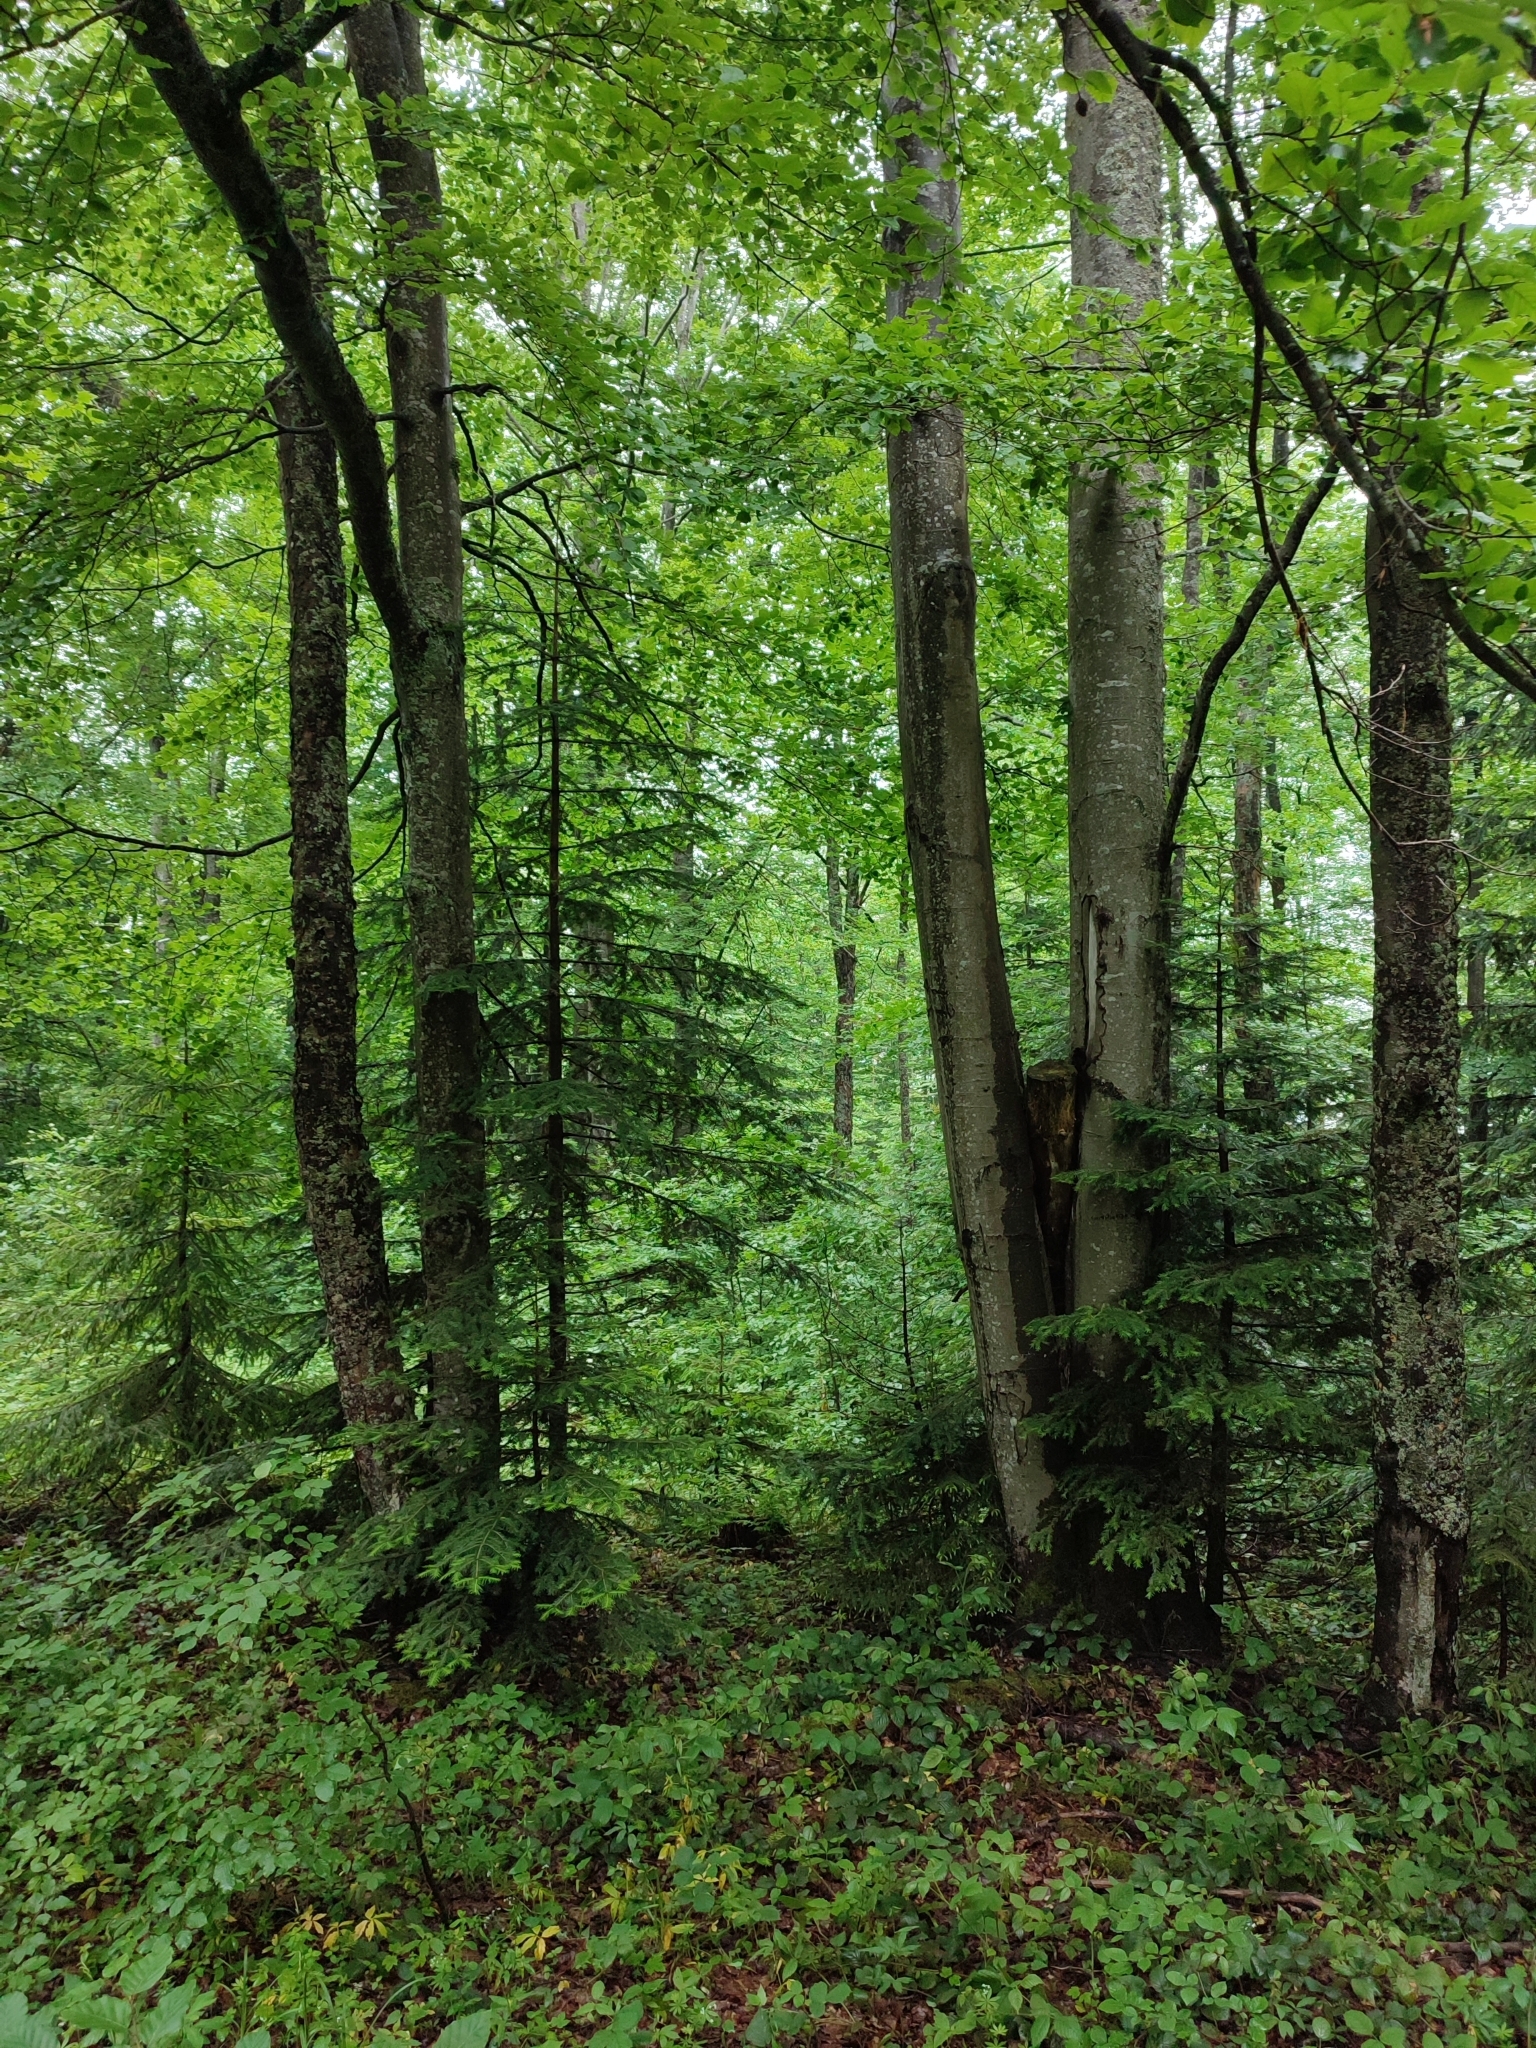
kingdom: Plantae
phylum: Tracheophyta
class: Magnoliopsida
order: Fagales
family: Fagaceae
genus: Fagus
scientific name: Fagus sylvatica
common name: Beech
